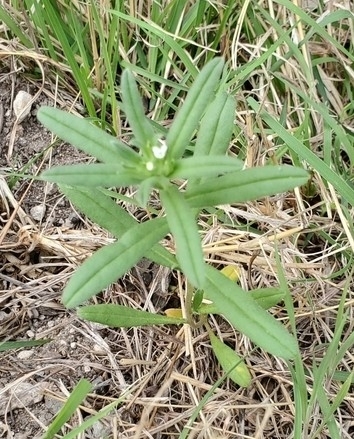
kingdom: Plantae
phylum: Tracheophyta
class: Magnoliopsida
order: Boraginales
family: Boraginaceae
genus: Buglossoides
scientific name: Buglossoides arvensis
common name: Corn gromwell
